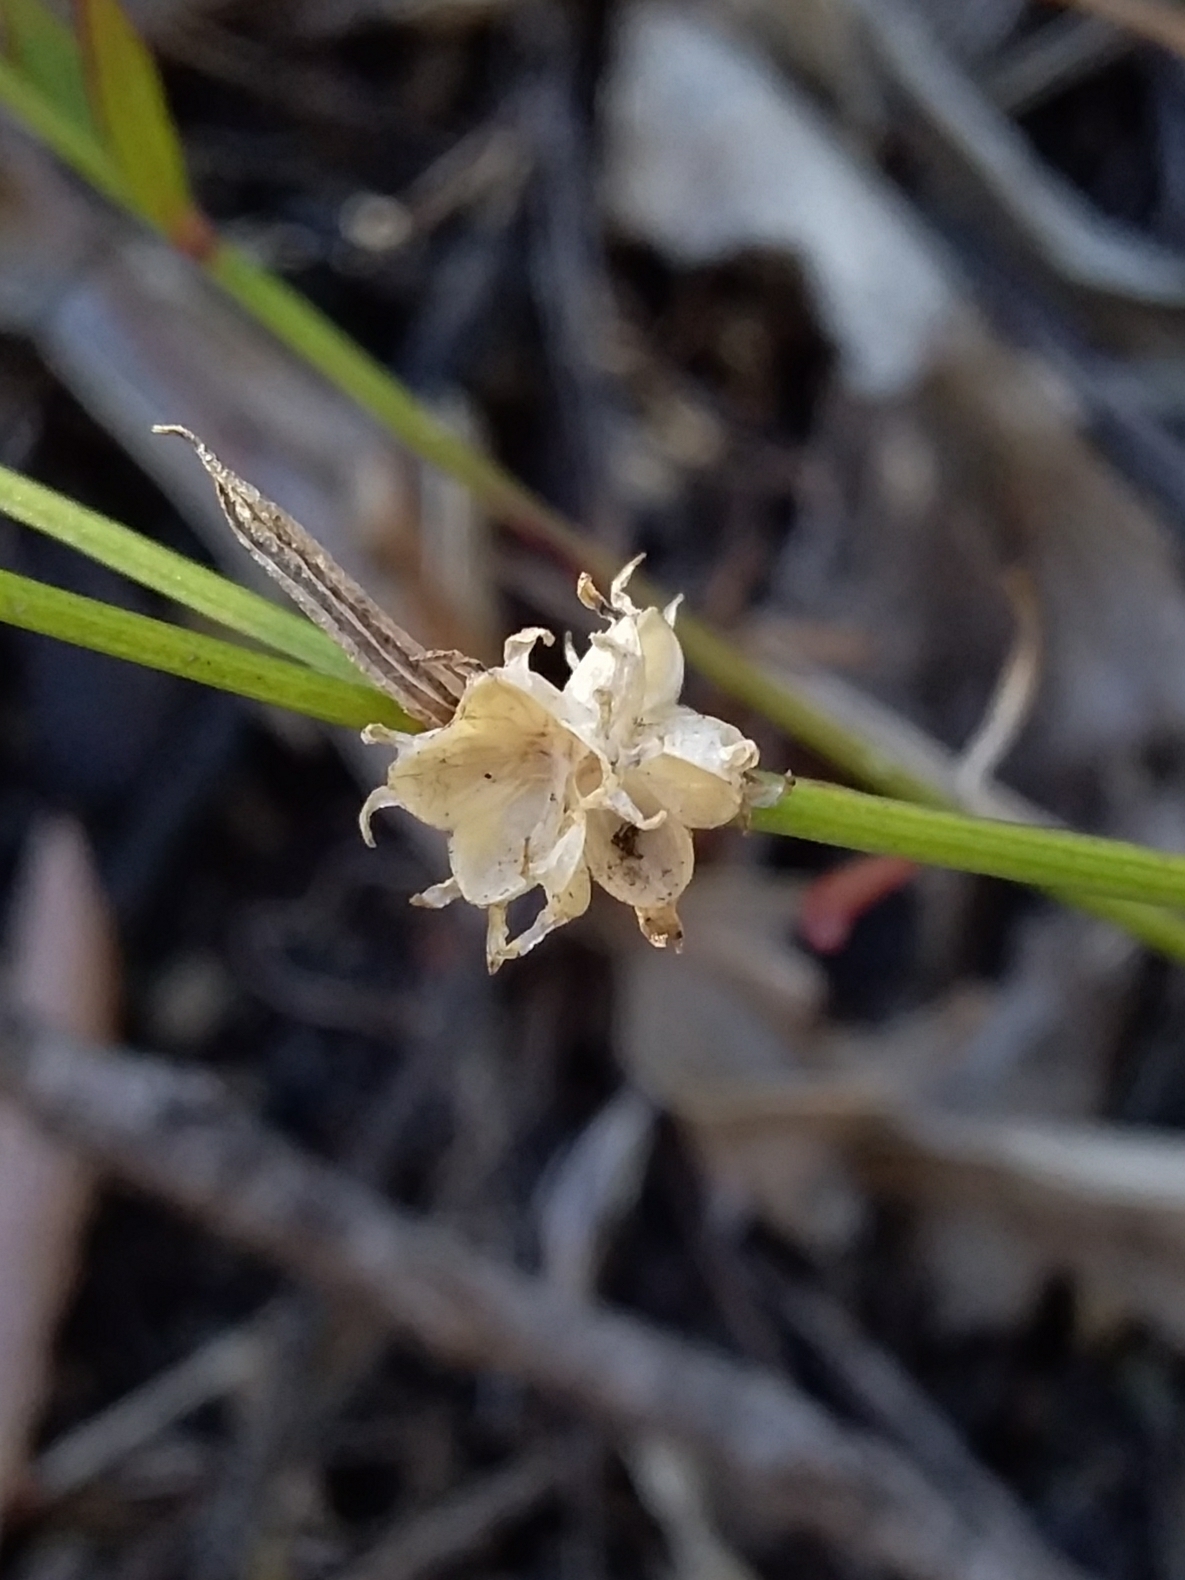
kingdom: Plantae
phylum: Tracheophyta
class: Magnoliopsida
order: Gentianales
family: Rubiaceae
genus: Opercularia
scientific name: Opercularia turpis
